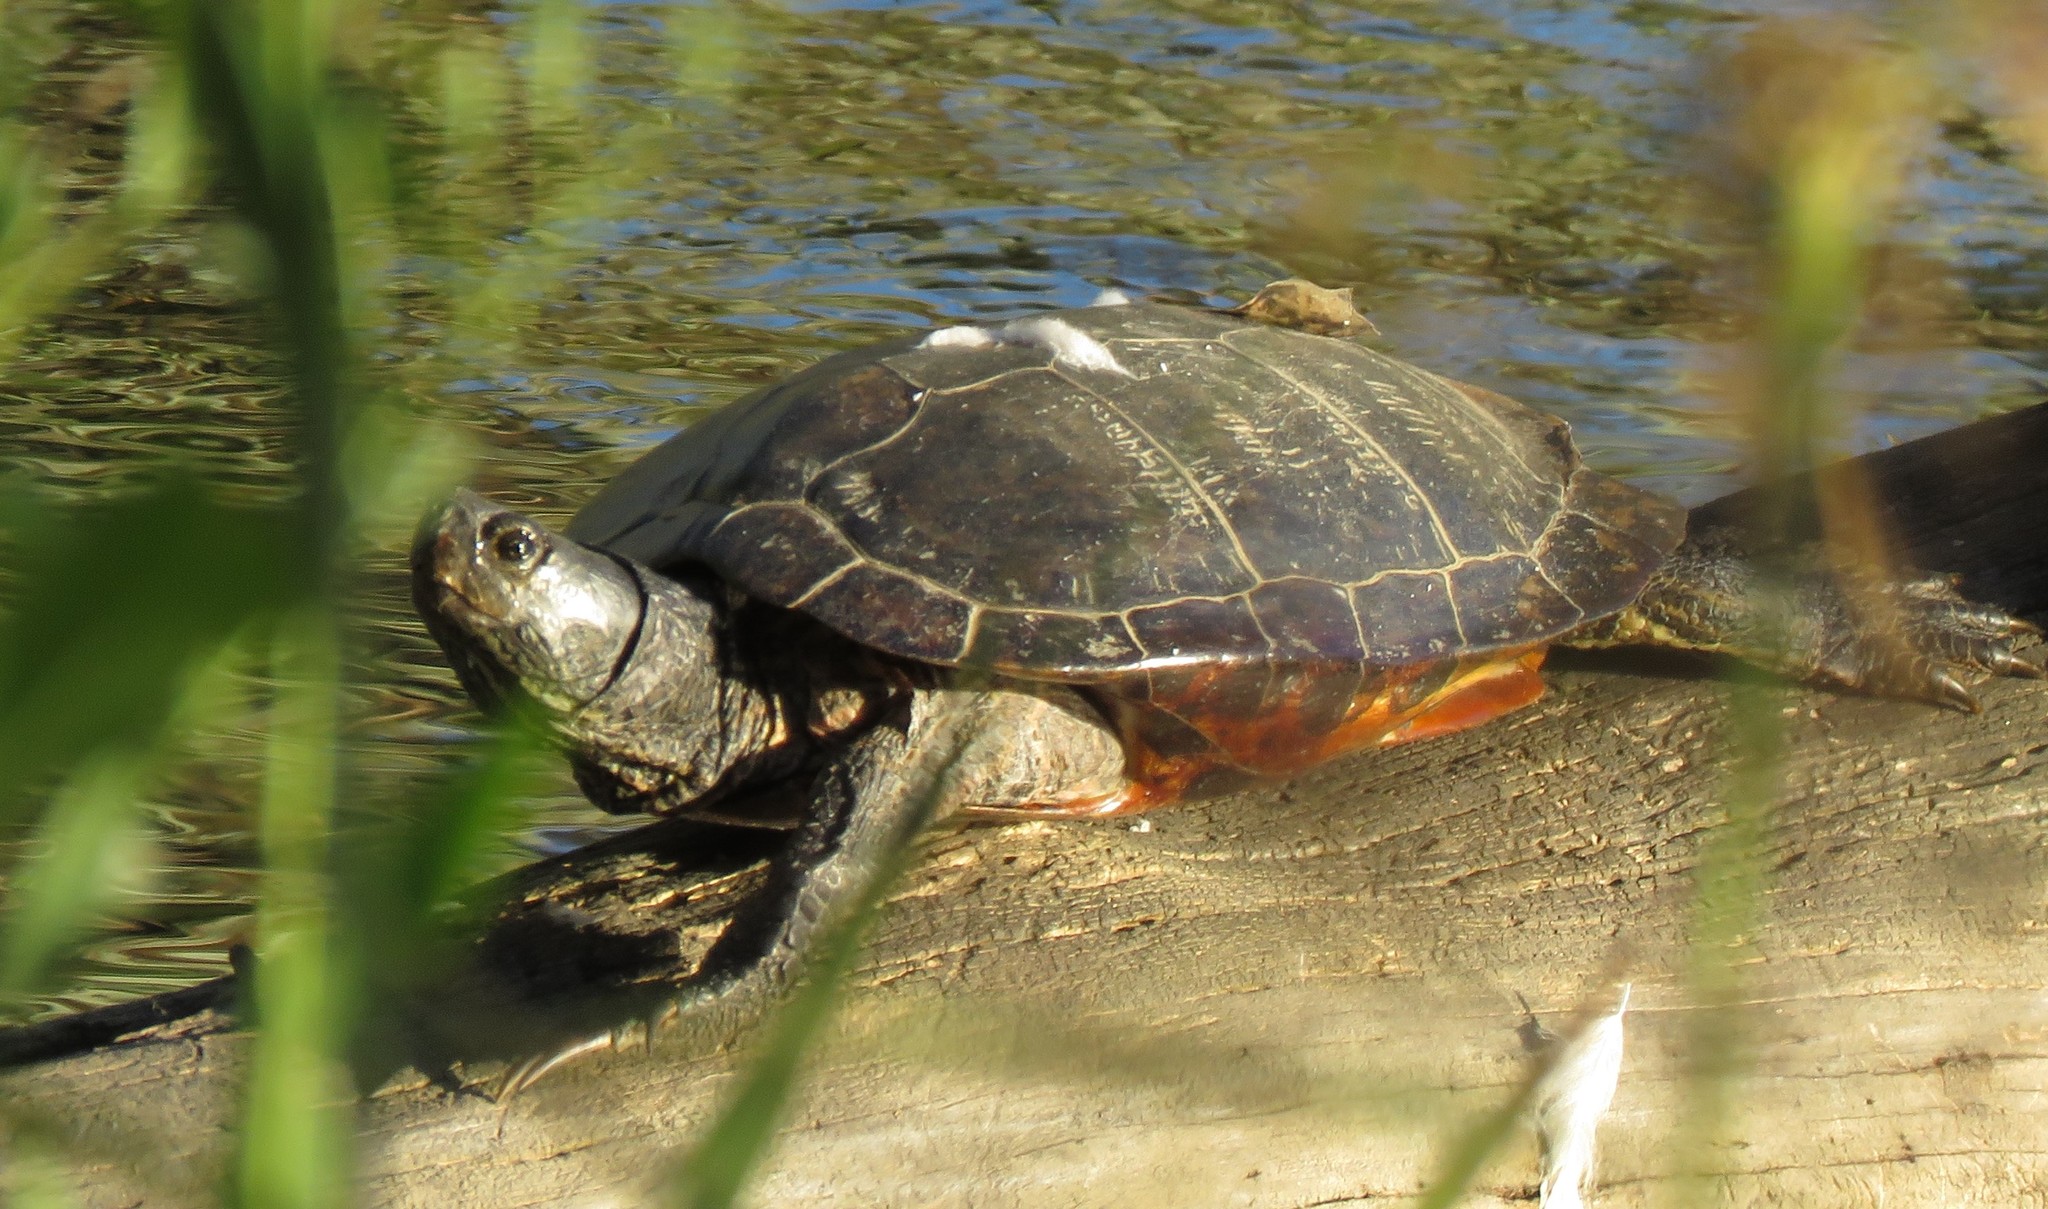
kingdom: Animalia
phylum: Chordata
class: Testudines
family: Emydidae
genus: Trachemys
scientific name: Trachemys scripta
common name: Slider
